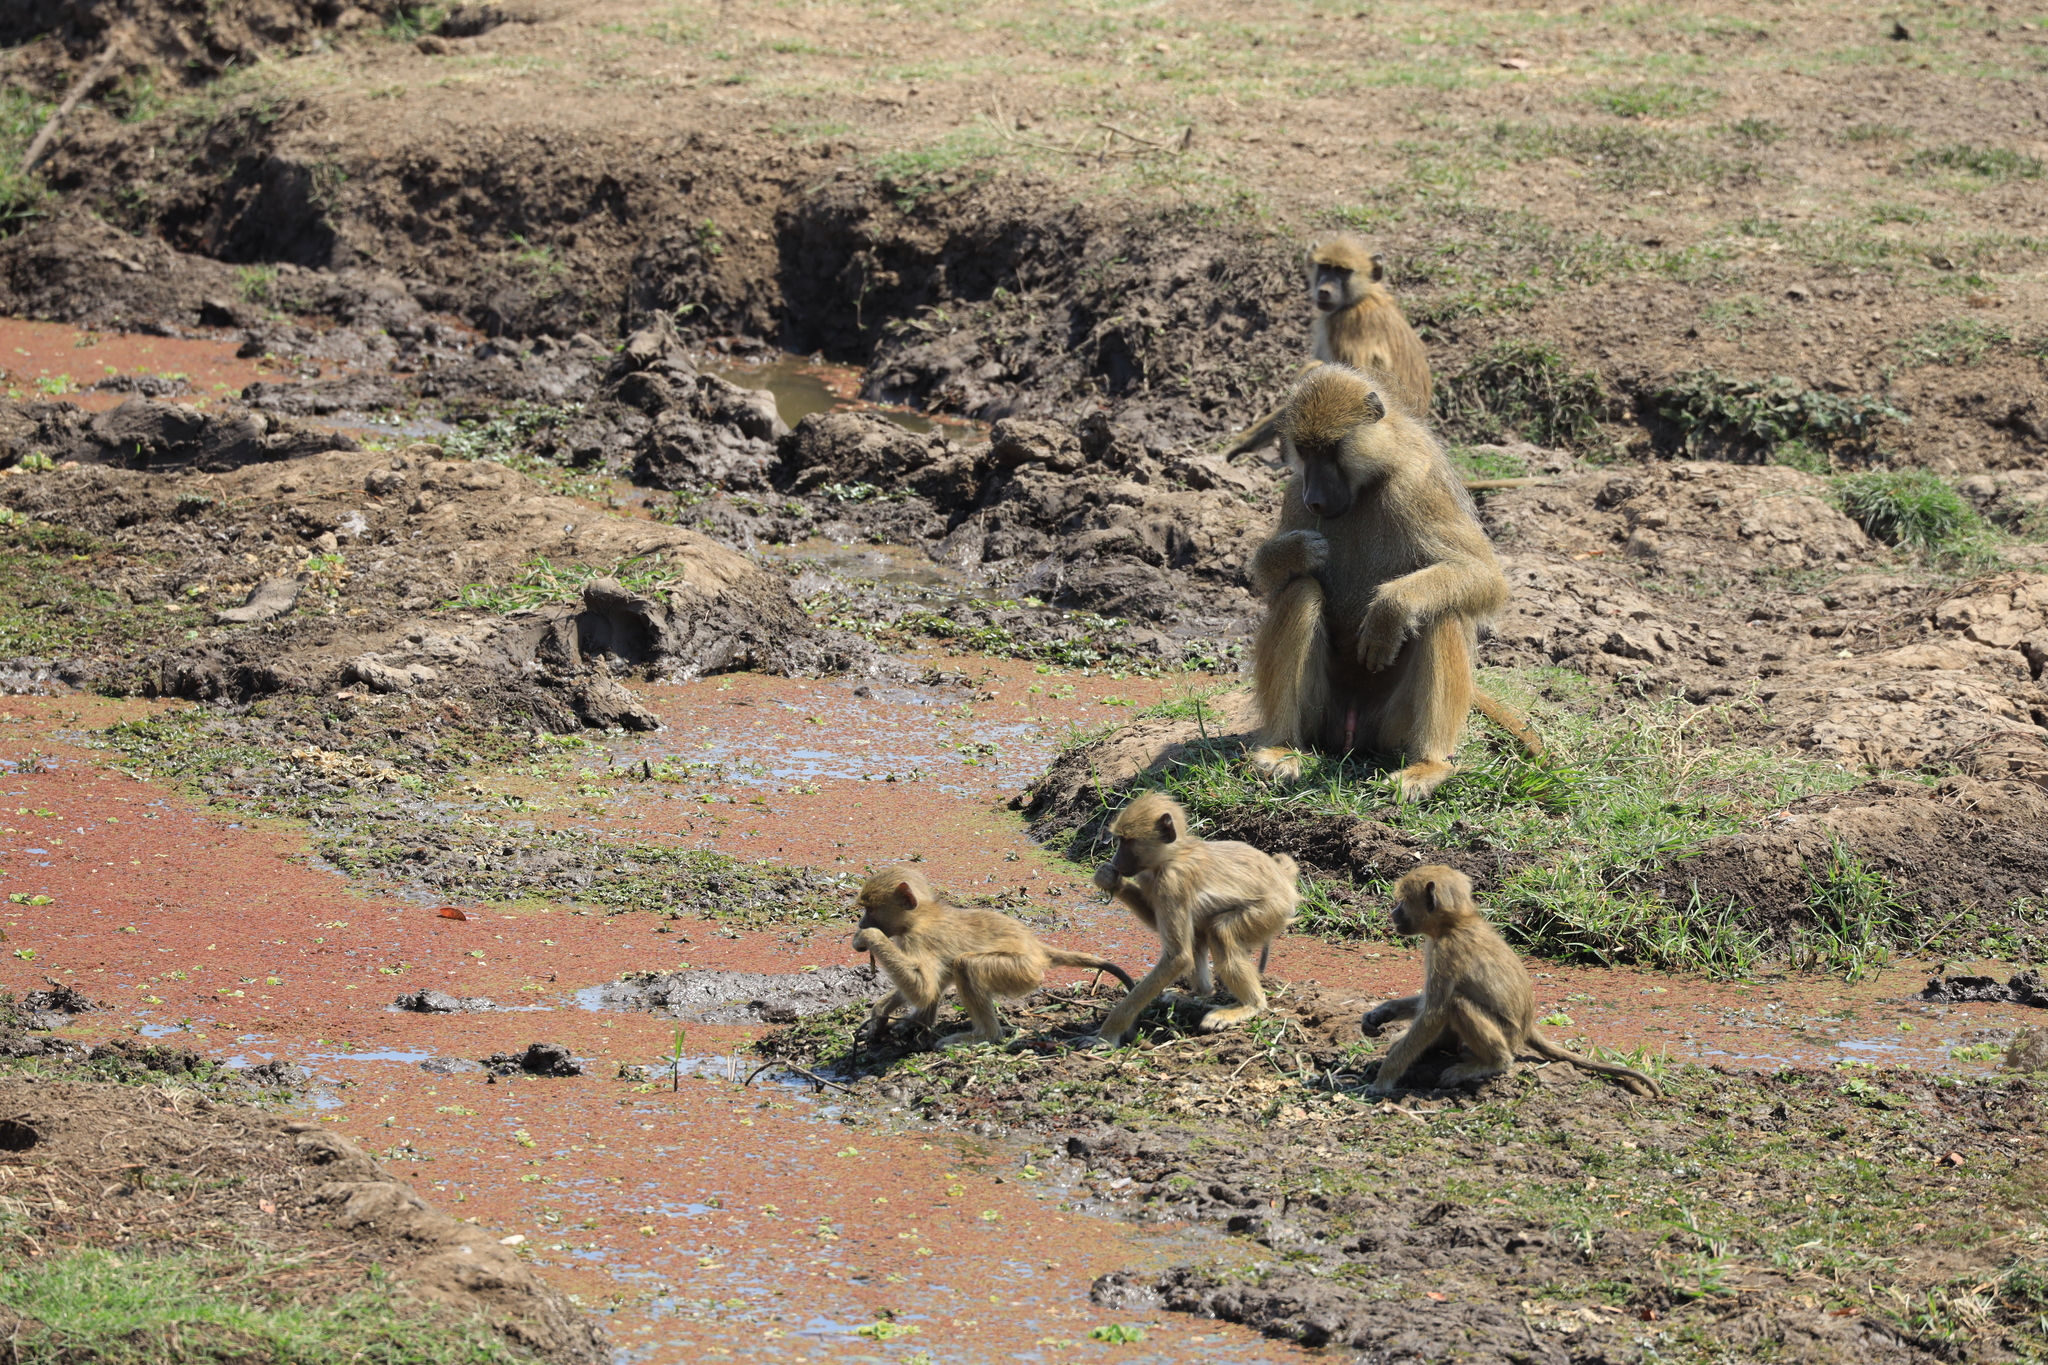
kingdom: Animalia
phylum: Chordata
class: Mammalia
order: Primates
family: Cercopithecidae
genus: Papio
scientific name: Papio cynocephalus
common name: Yellow baboon
